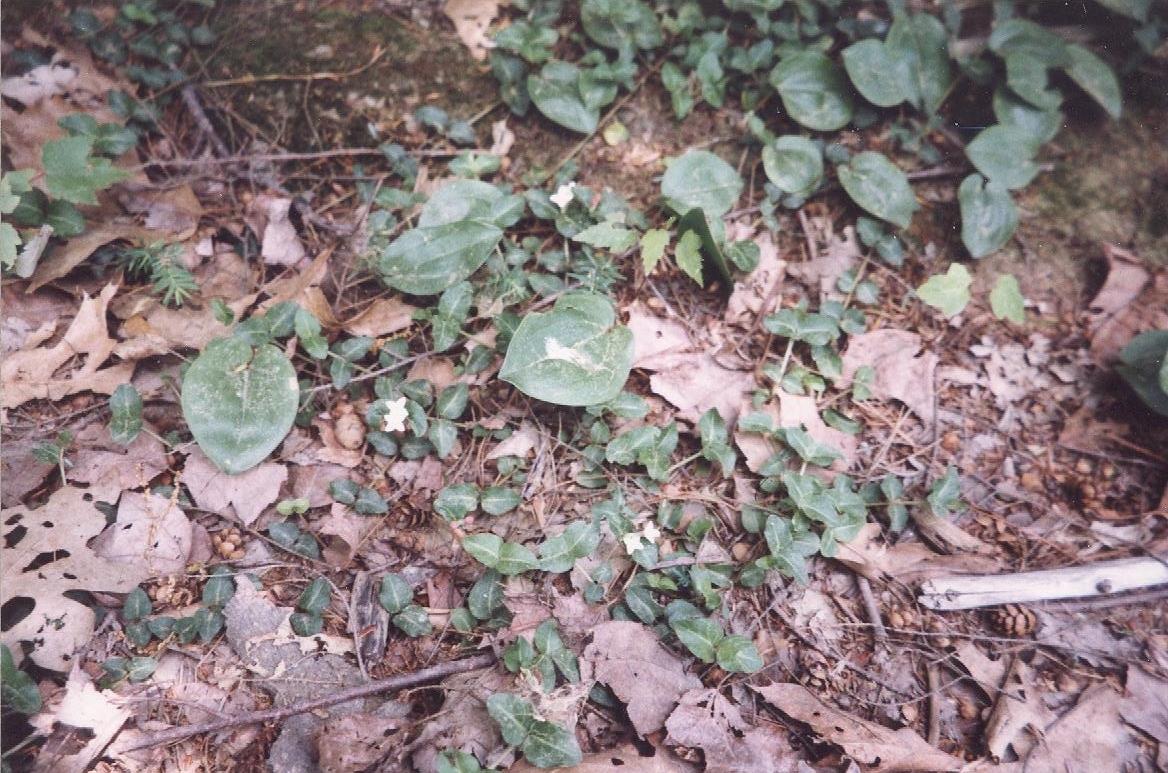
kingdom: Plantae
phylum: Tracheophyta
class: Magnoliopsida
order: Gentianales
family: Rubiaceae
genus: Mitchella
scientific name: Mitchella repens
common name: Partridge-berry
